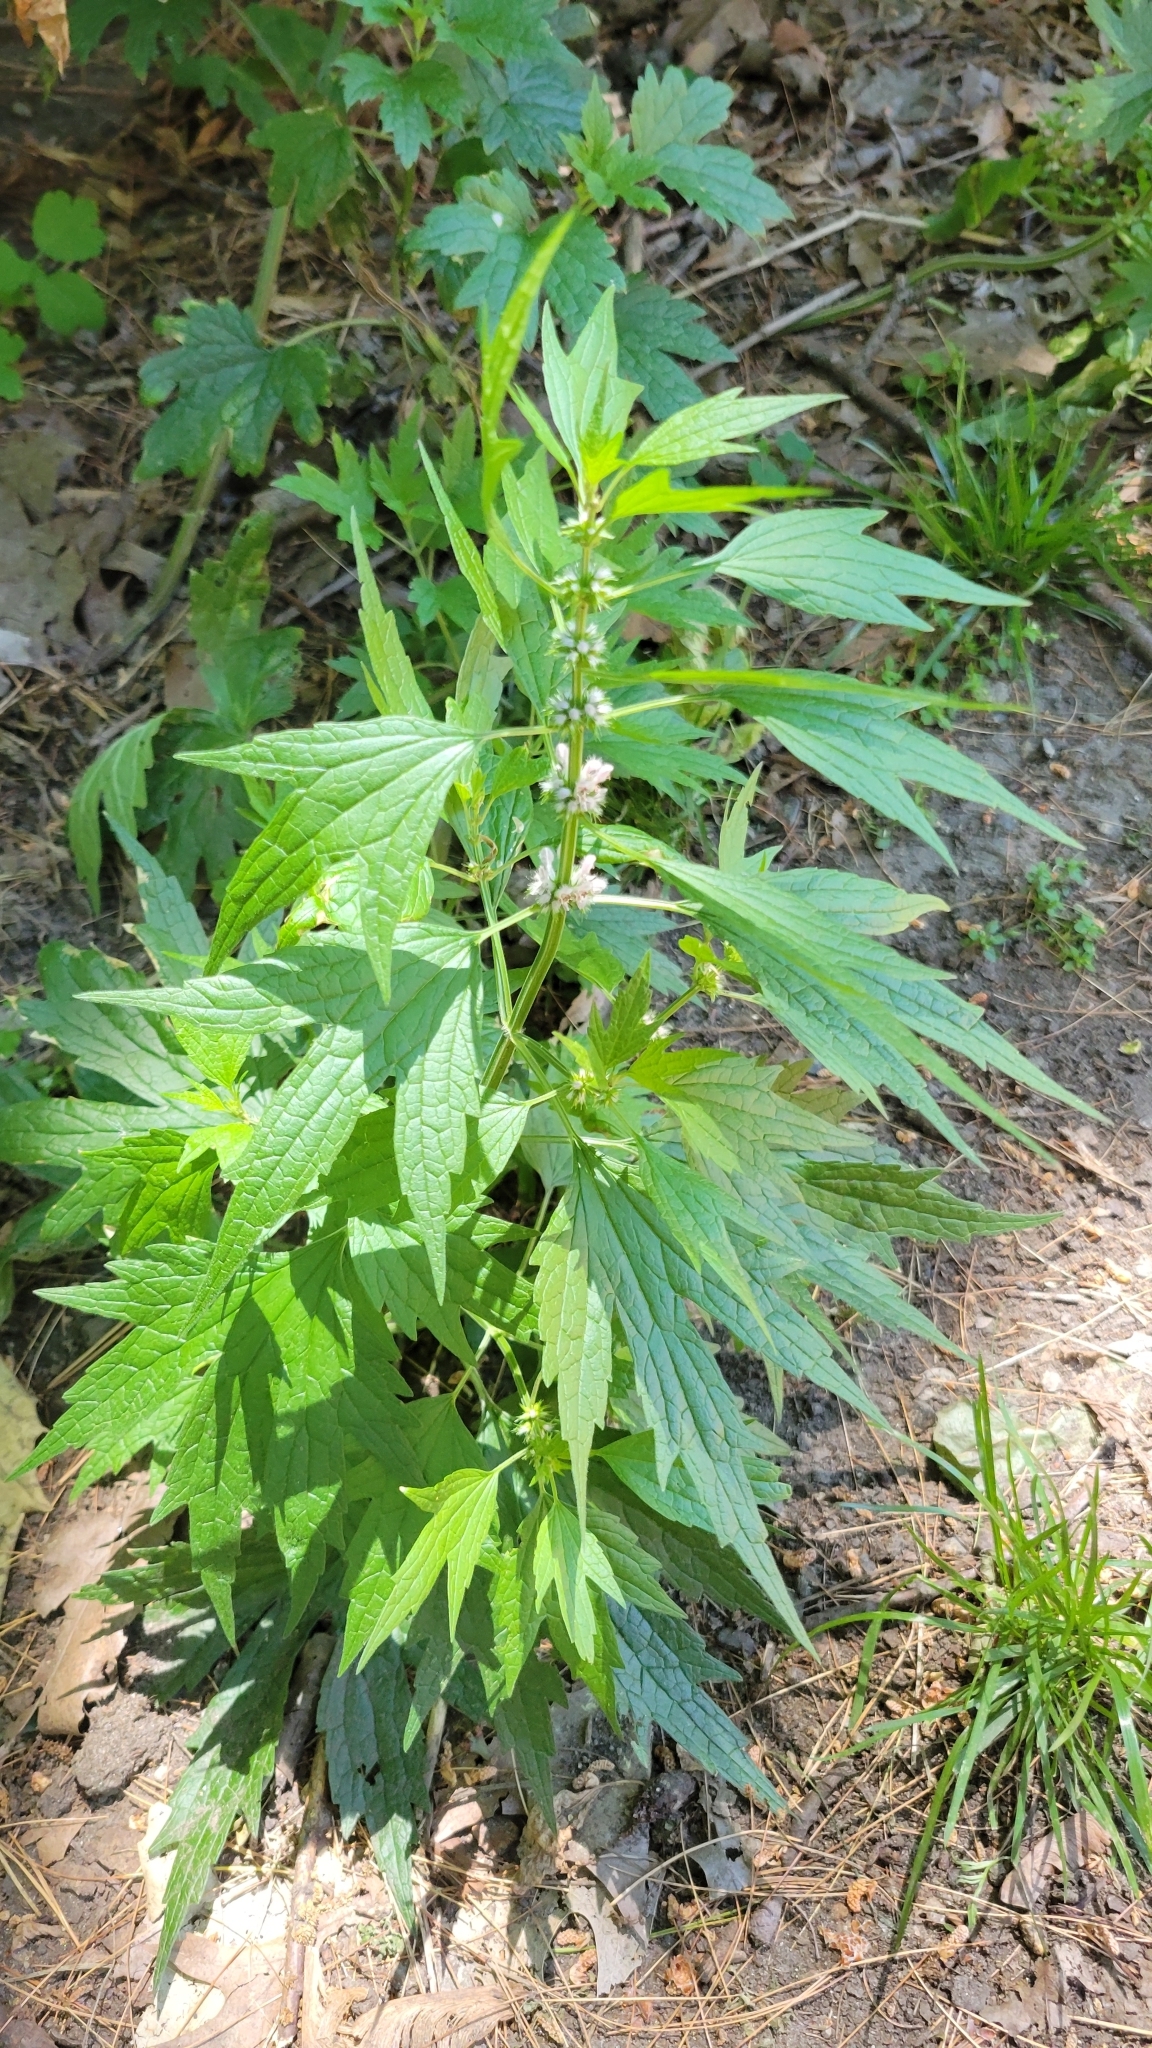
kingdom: Plantae
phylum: Tracheophyta
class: Magnoliopsida
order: Lamiales
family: Lamiaceae
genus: Leonurus
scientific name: Leonurus cardiaca
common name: Motherwort
